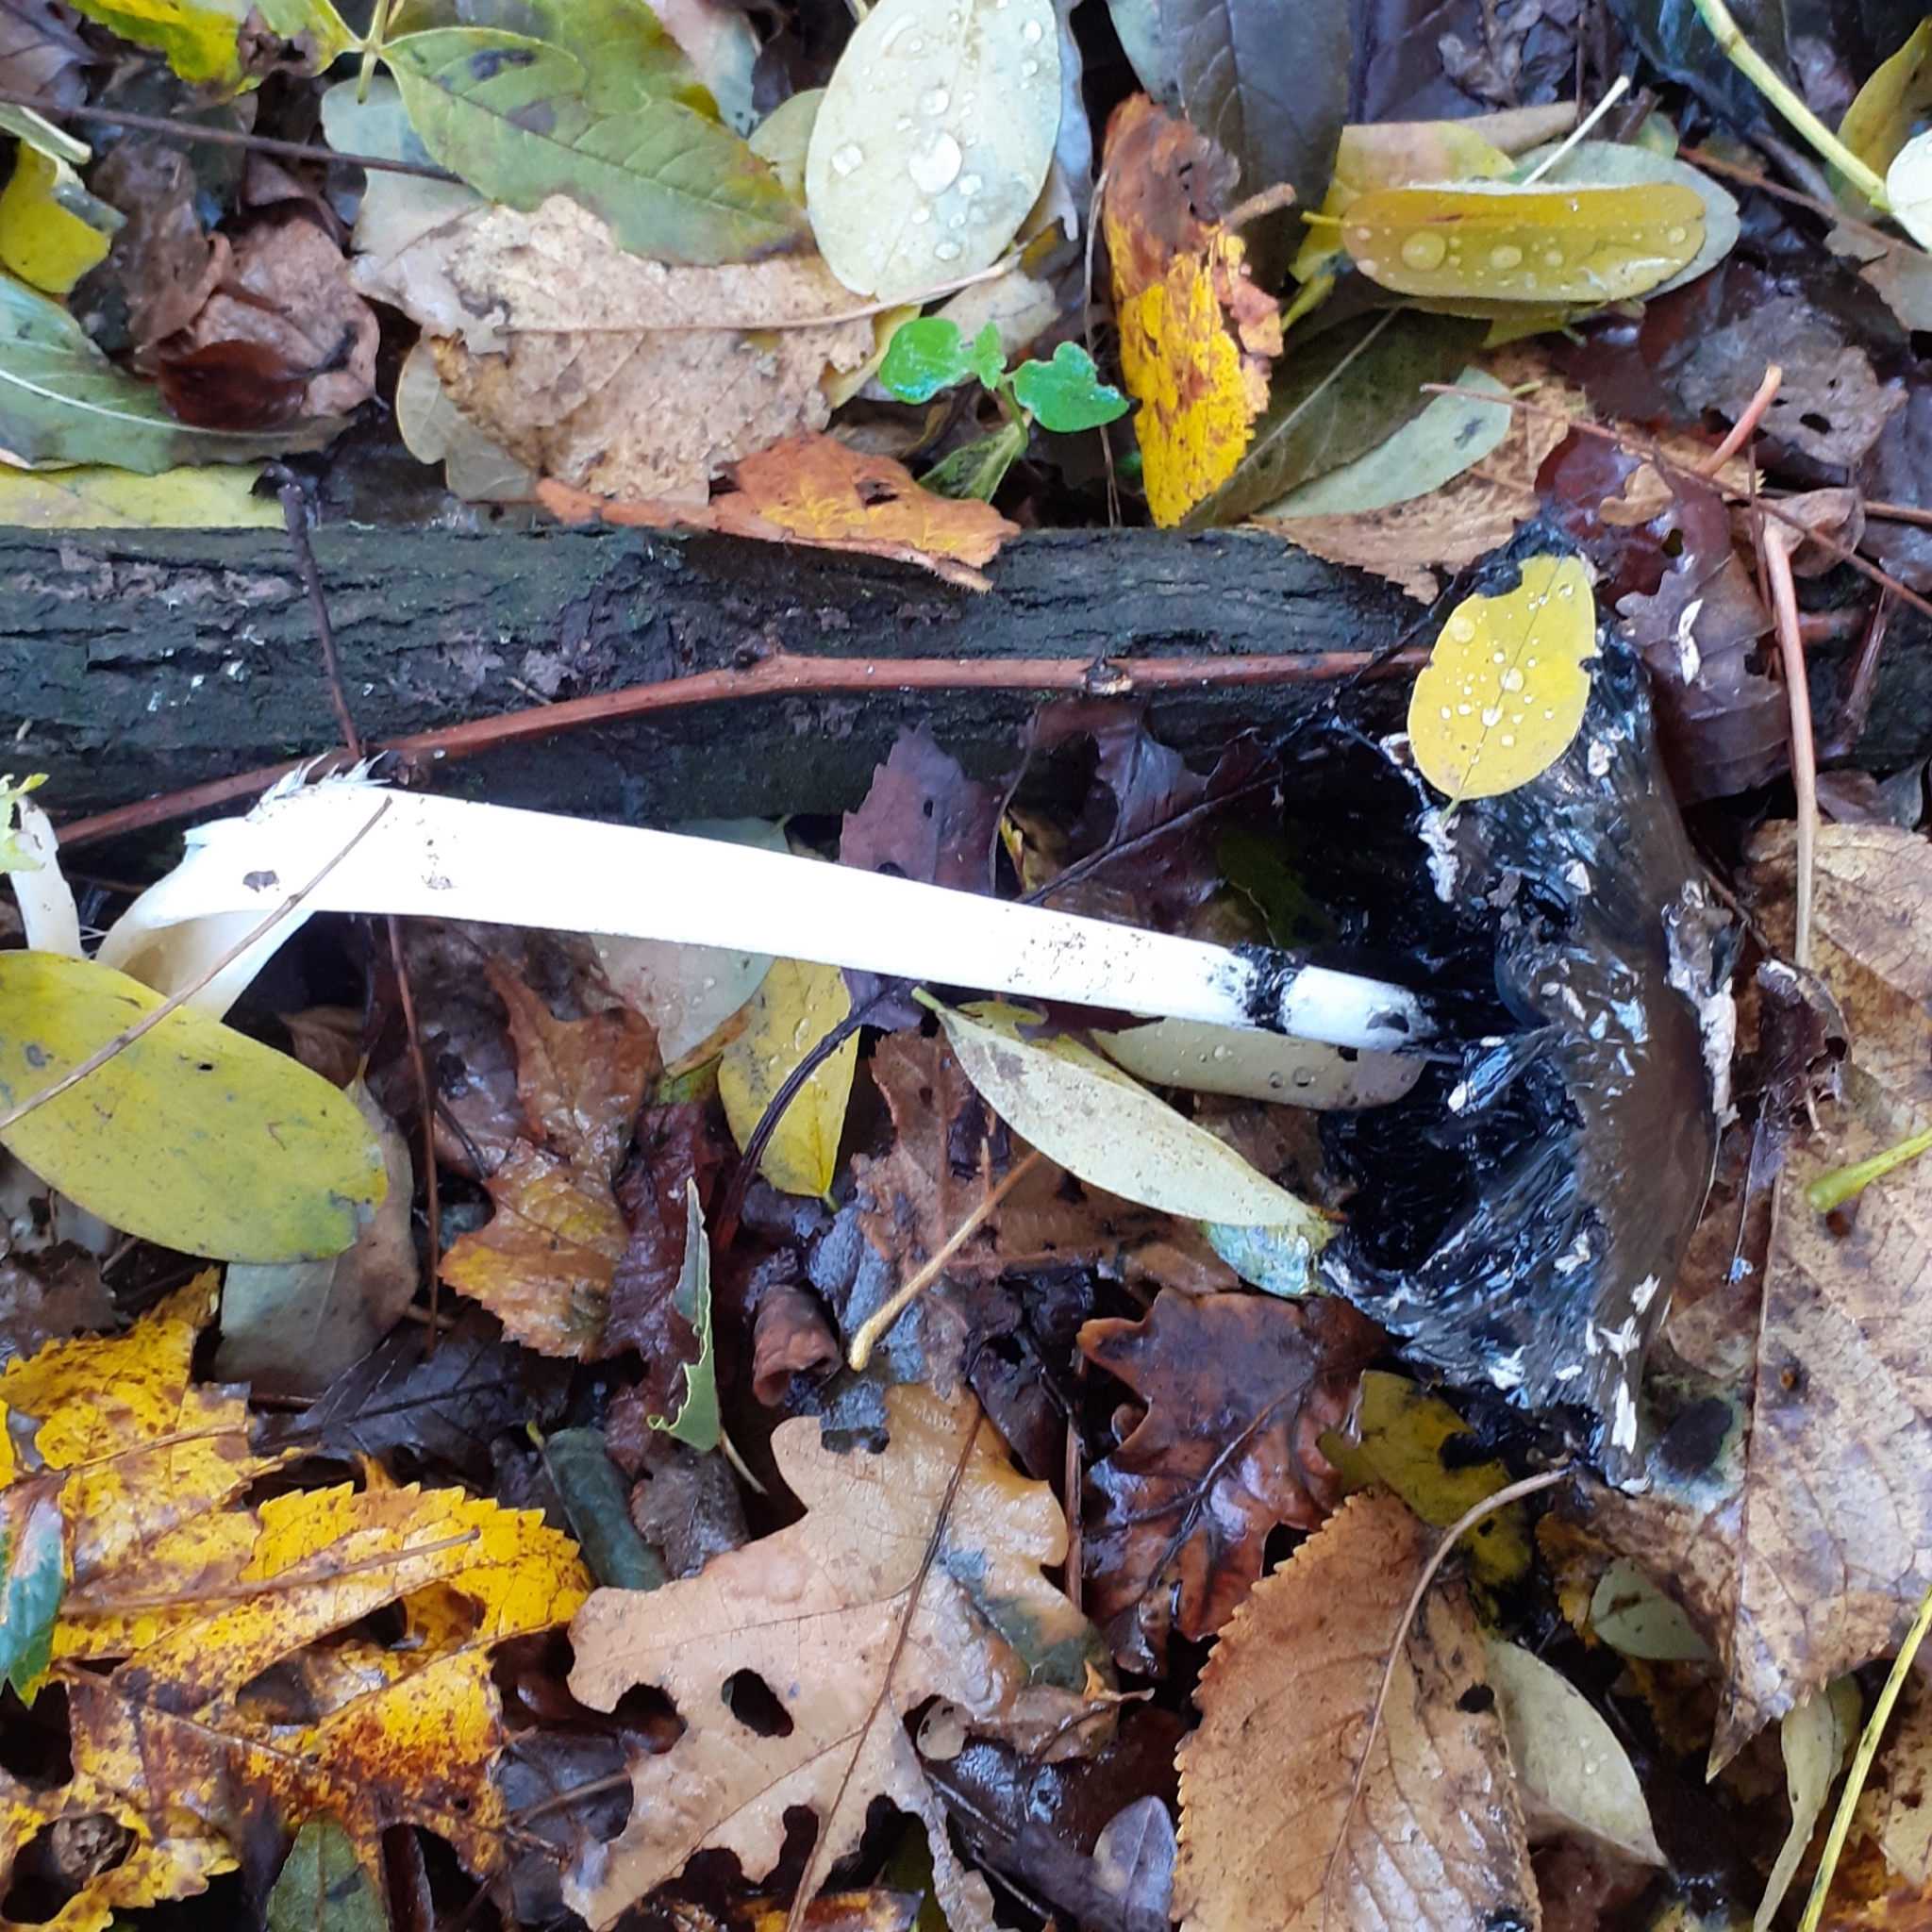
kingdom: Fungi
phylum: Basidiomycota
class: Agaricomycetes
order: Agaricales
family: Psathyrellaceae
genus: Coprinopsis
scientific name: Coprinopsis picacea
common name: Magpie inkcap
